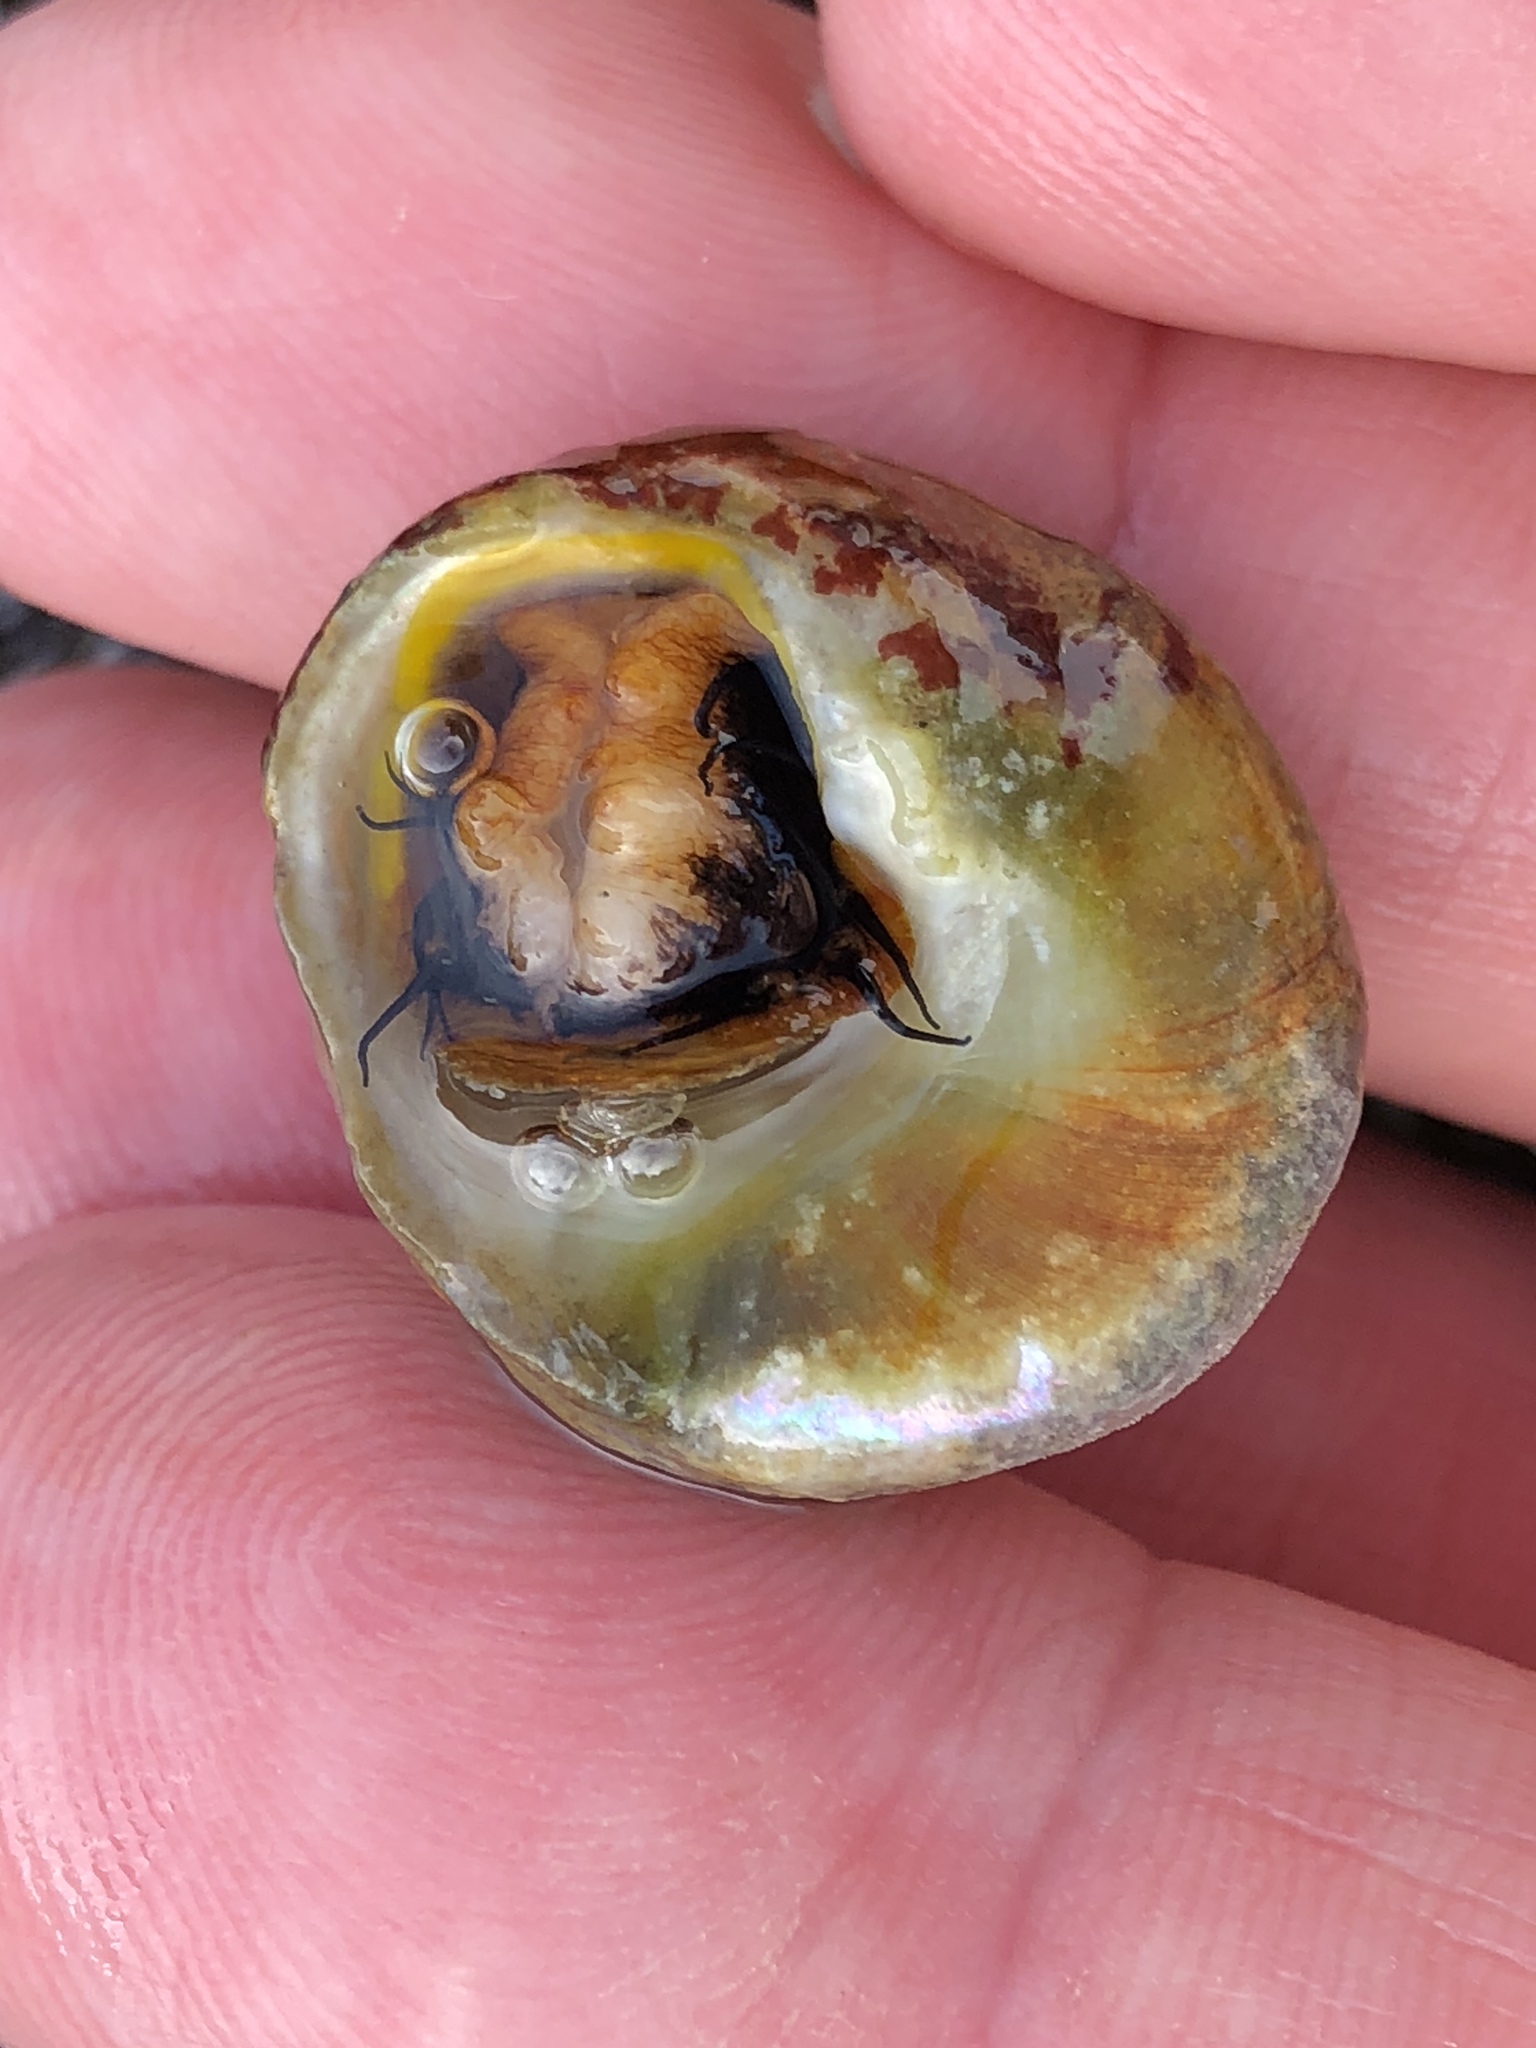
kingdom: Animalia
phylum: Mollusca
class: Gastropoda
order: Trochida
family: Tegulidae
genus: Tegula
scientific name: Tegula brunnea
